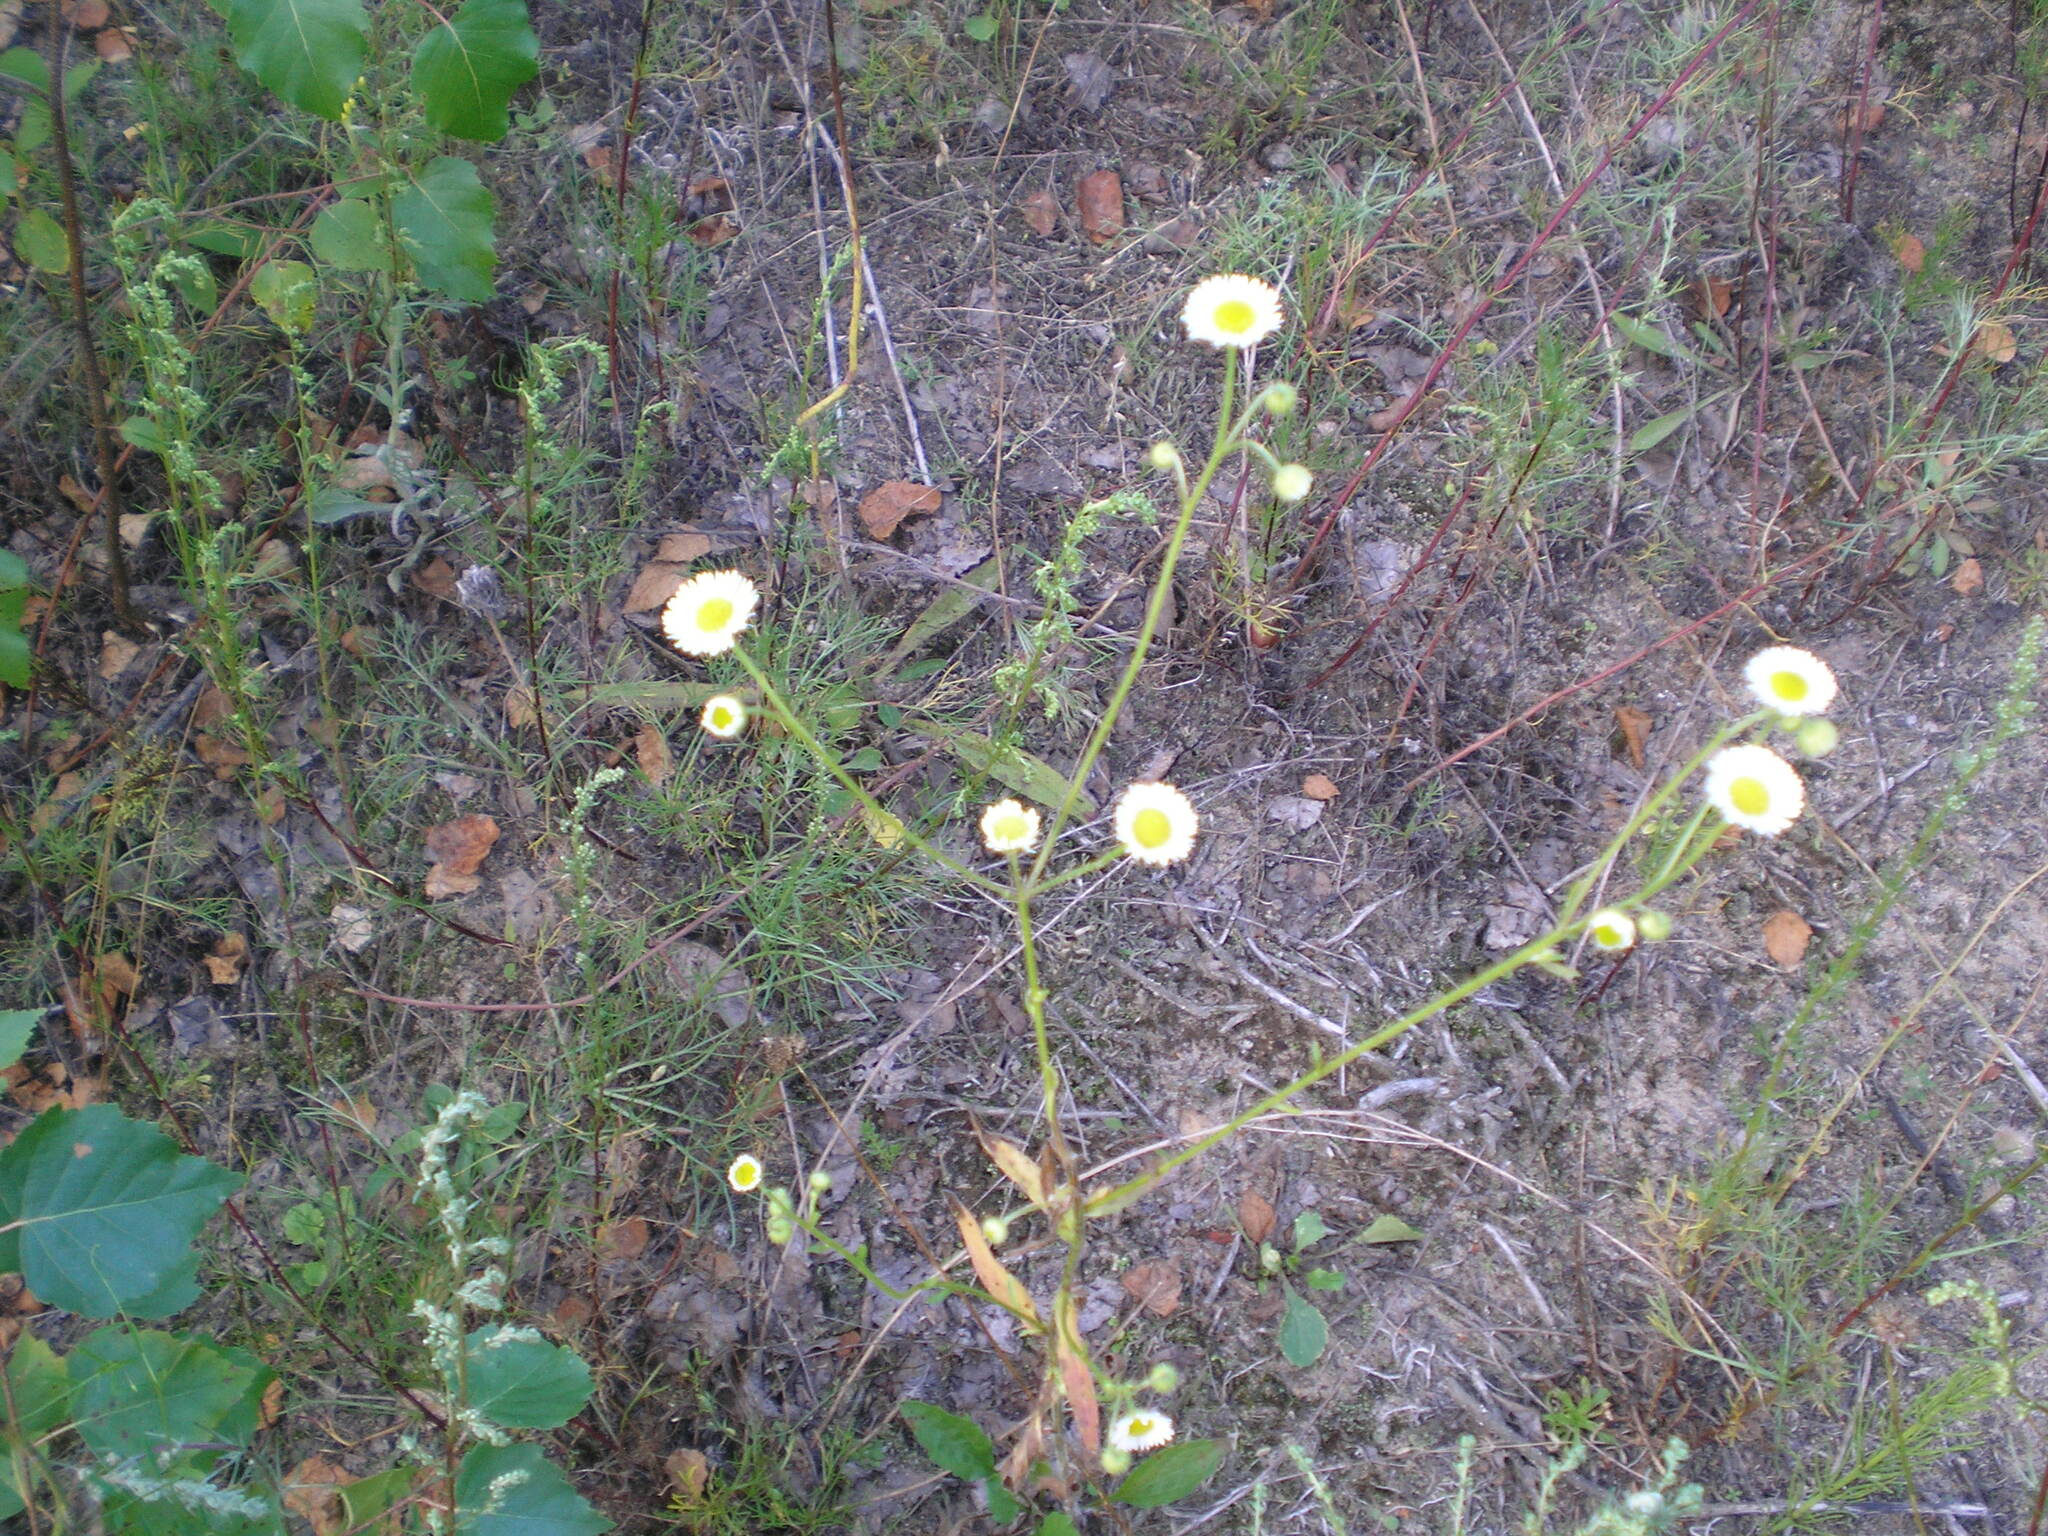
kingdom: Plantae
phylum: Tracheophyta
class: Magnoliopsida
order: Asterales
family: Asteraceae
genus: Erigeron
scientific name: Erigeron strigosus
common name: Common eastern fleabane
